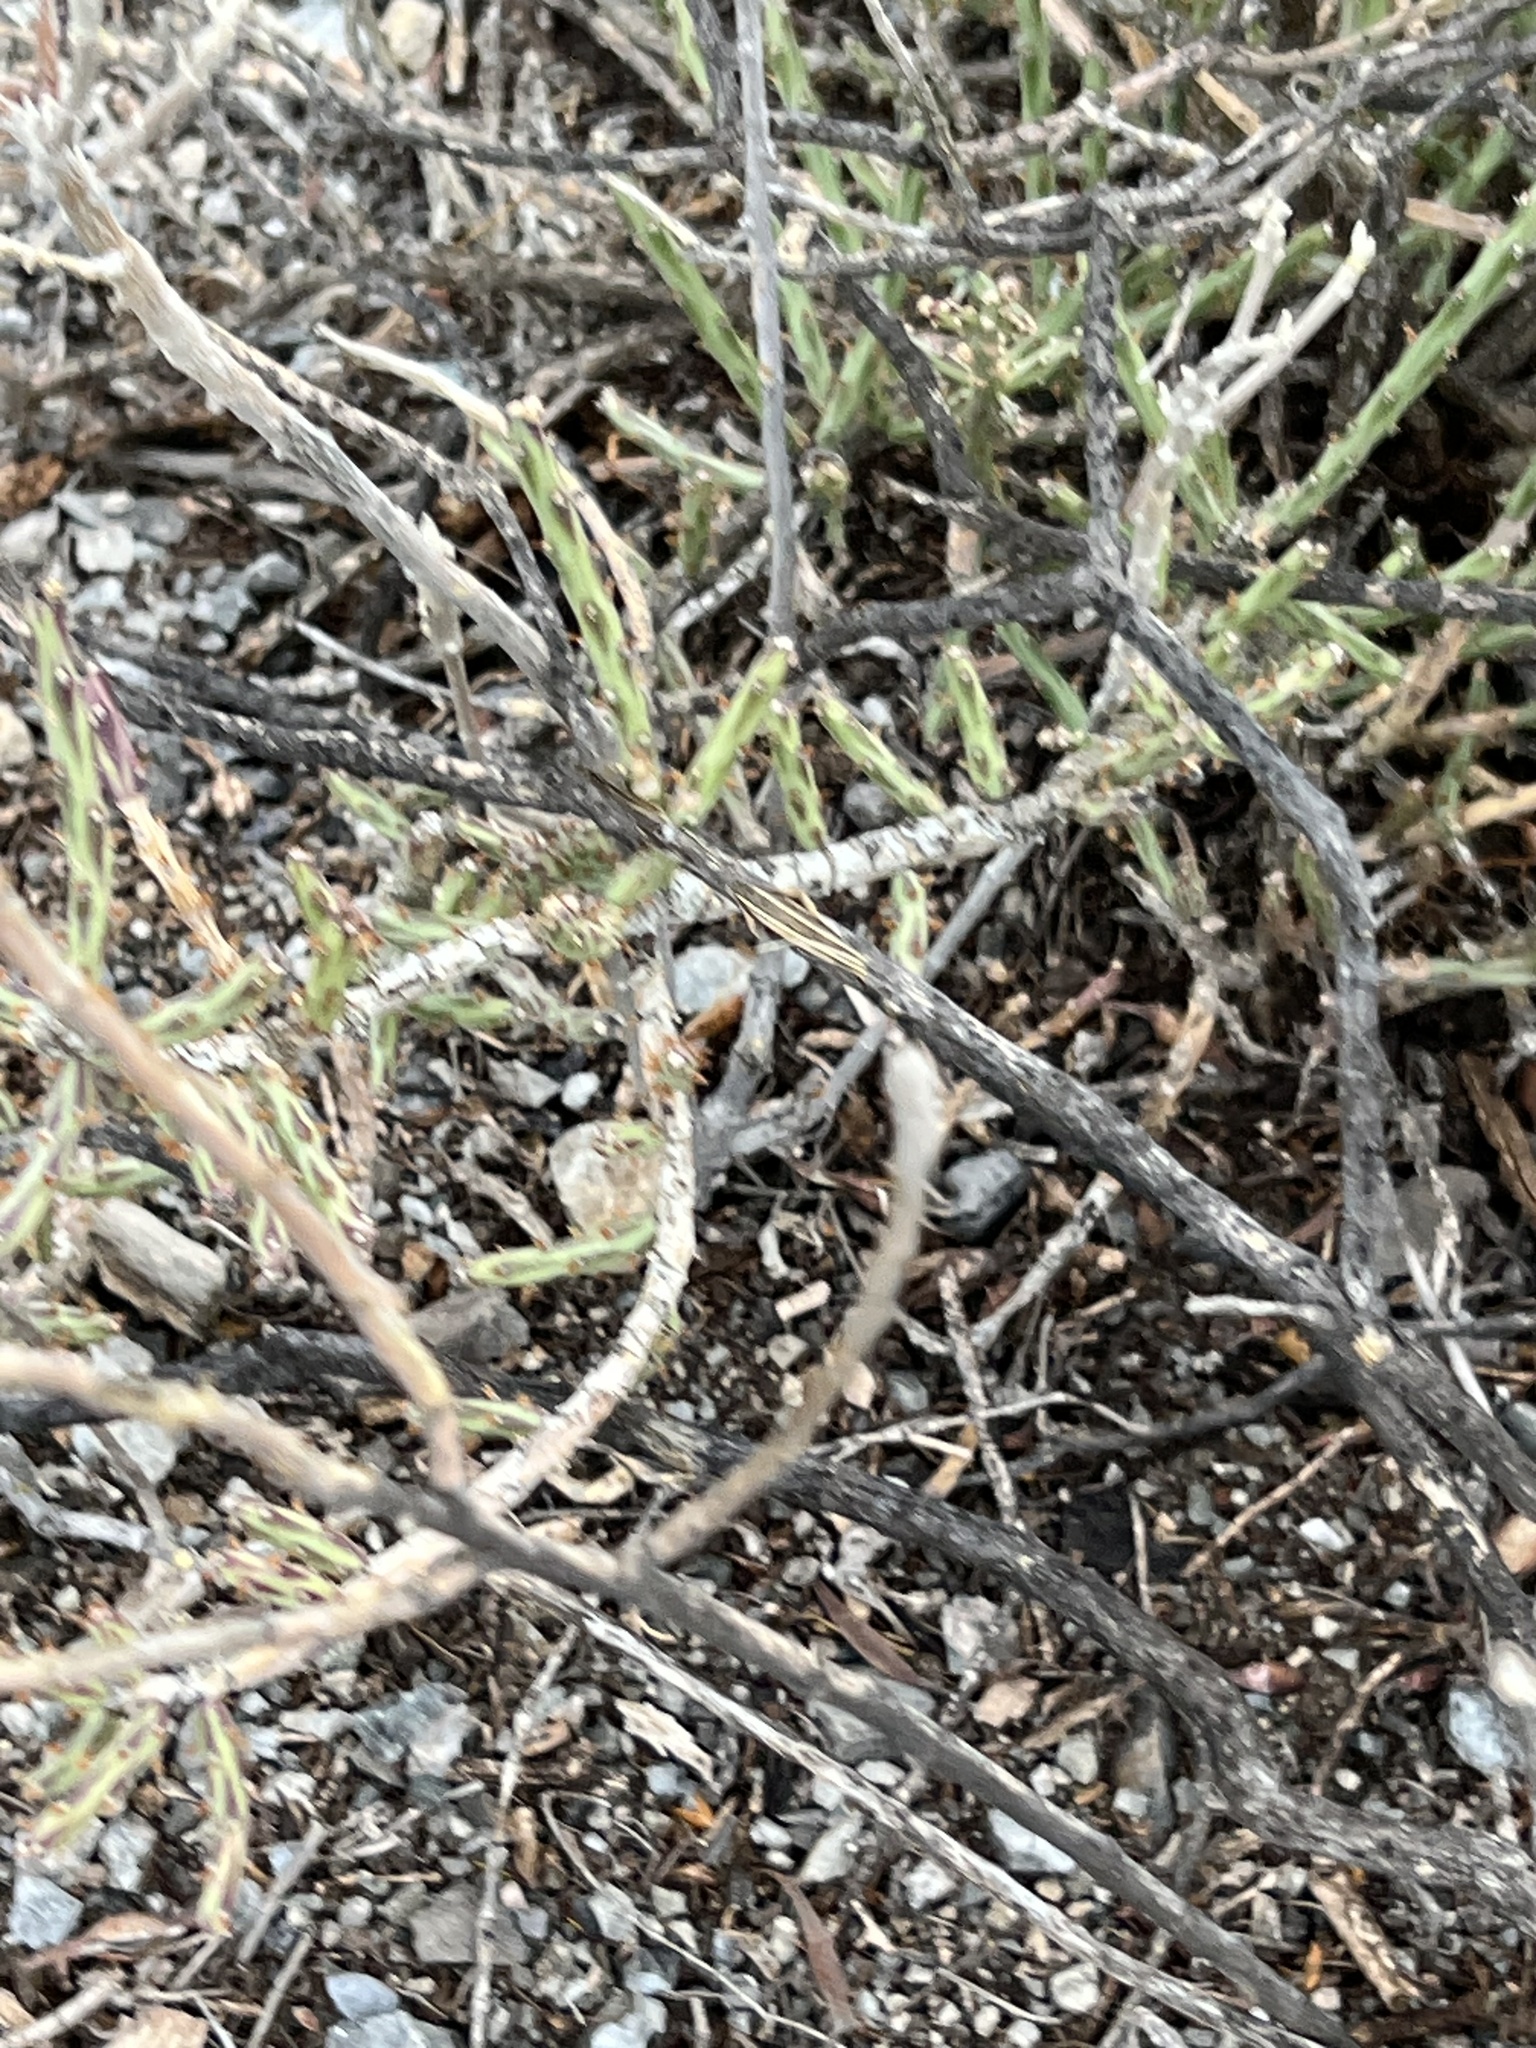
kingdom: Plantae
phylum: Tracheophyta
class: Magnoliopsida
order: Caryophyllales
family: Cactaceae
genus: Cylindropuntia
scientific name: Cylindropuntia leptocaulis
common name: Christmas cactus
